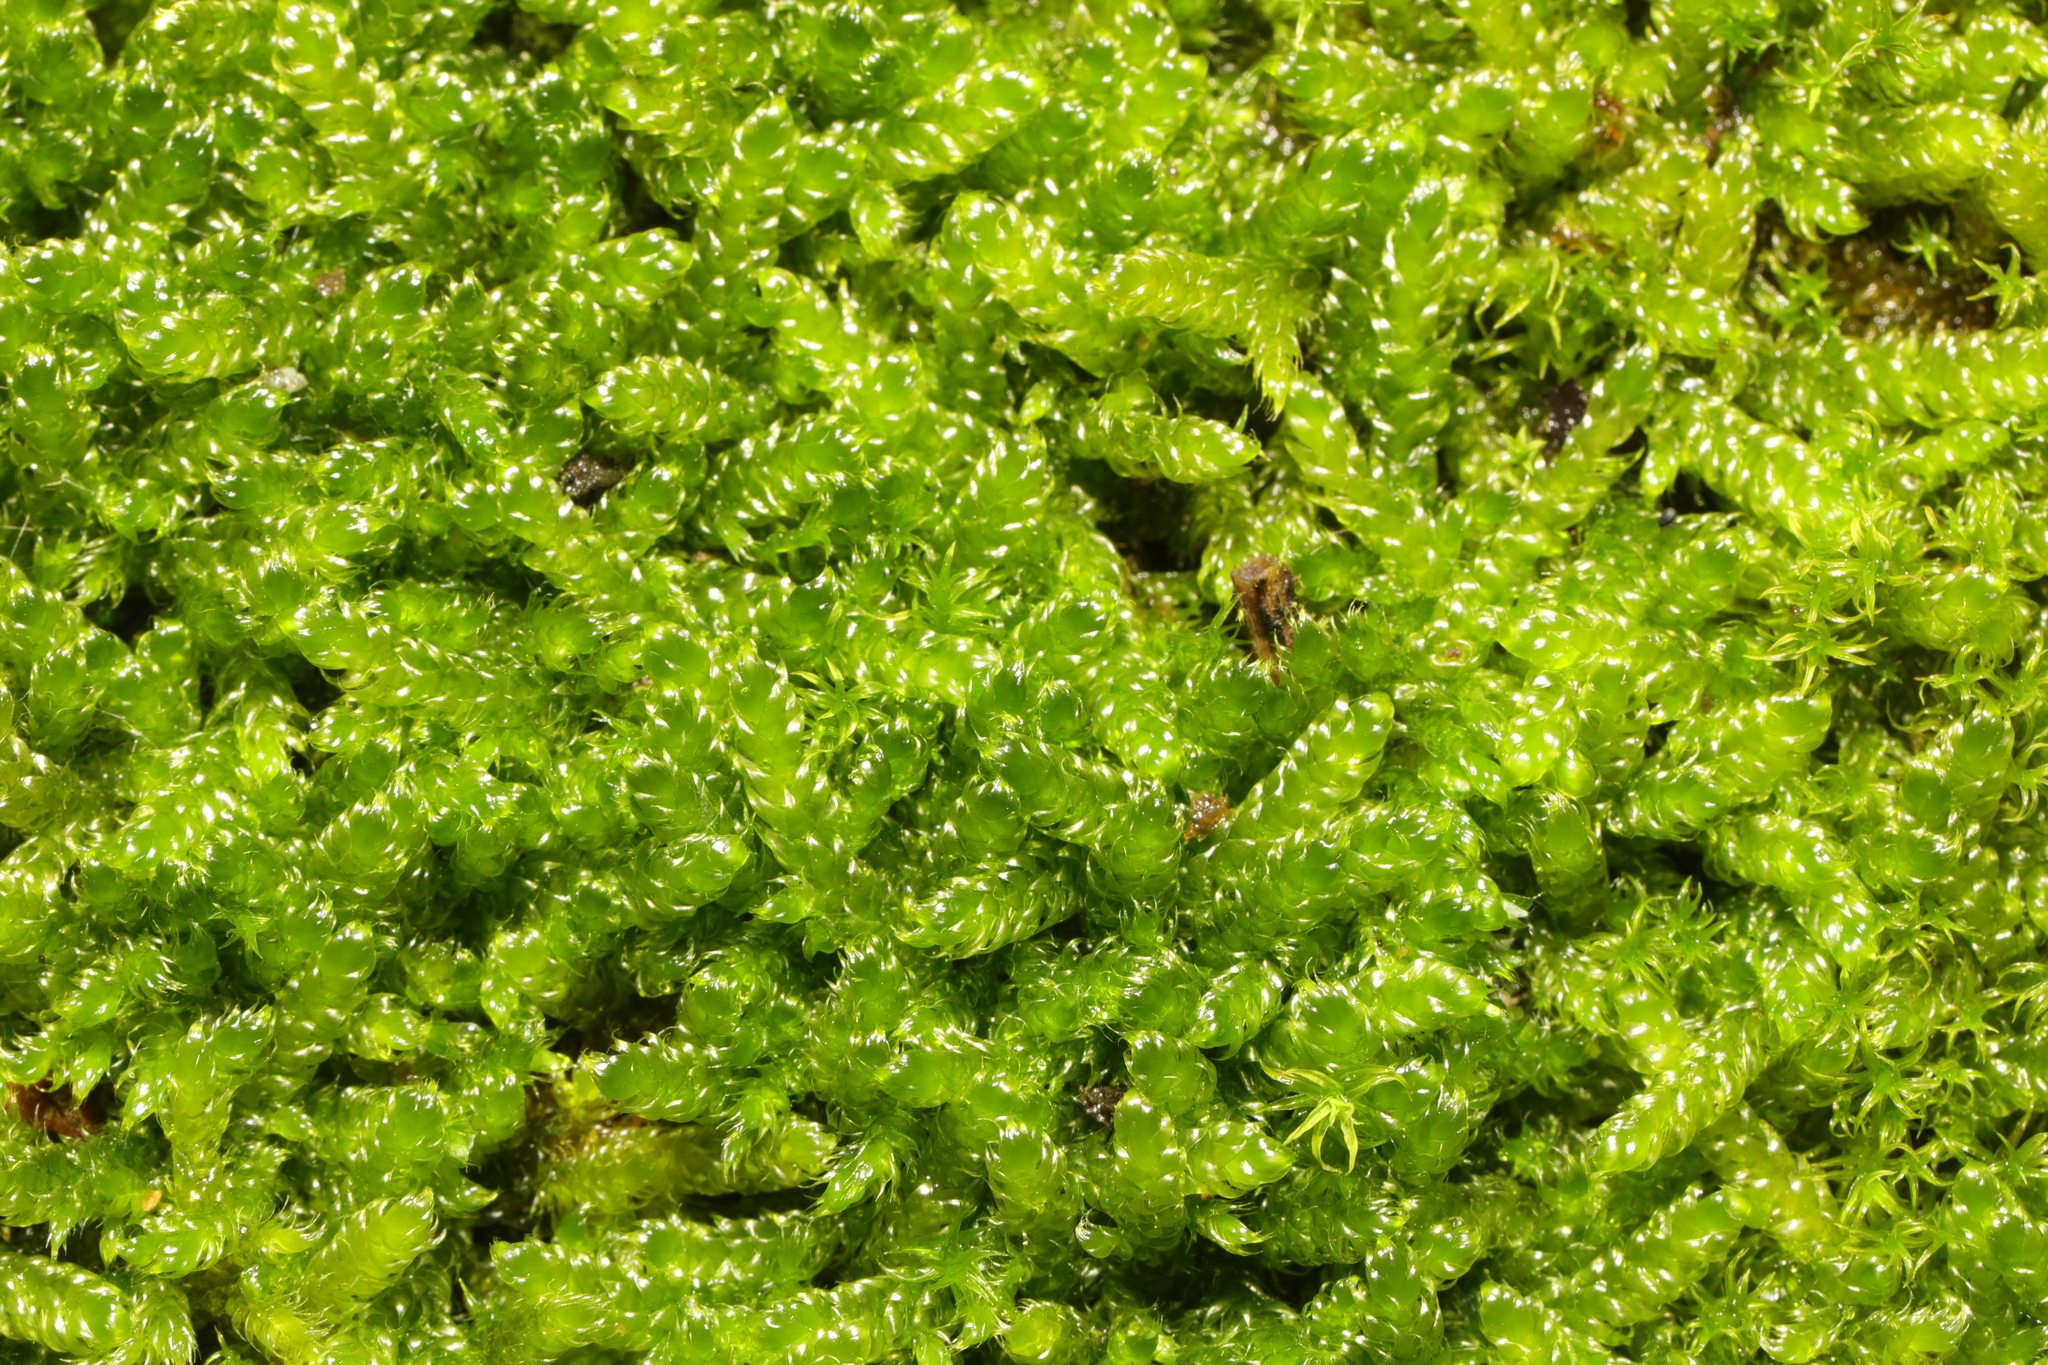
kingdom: Plantae
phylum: Bryophyta
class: Bryopsida
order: Hypnales
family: Hypnaceae
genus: Hypnum
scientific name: Hypnum cupressiforme
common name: Cypress-leaved plait-moss
